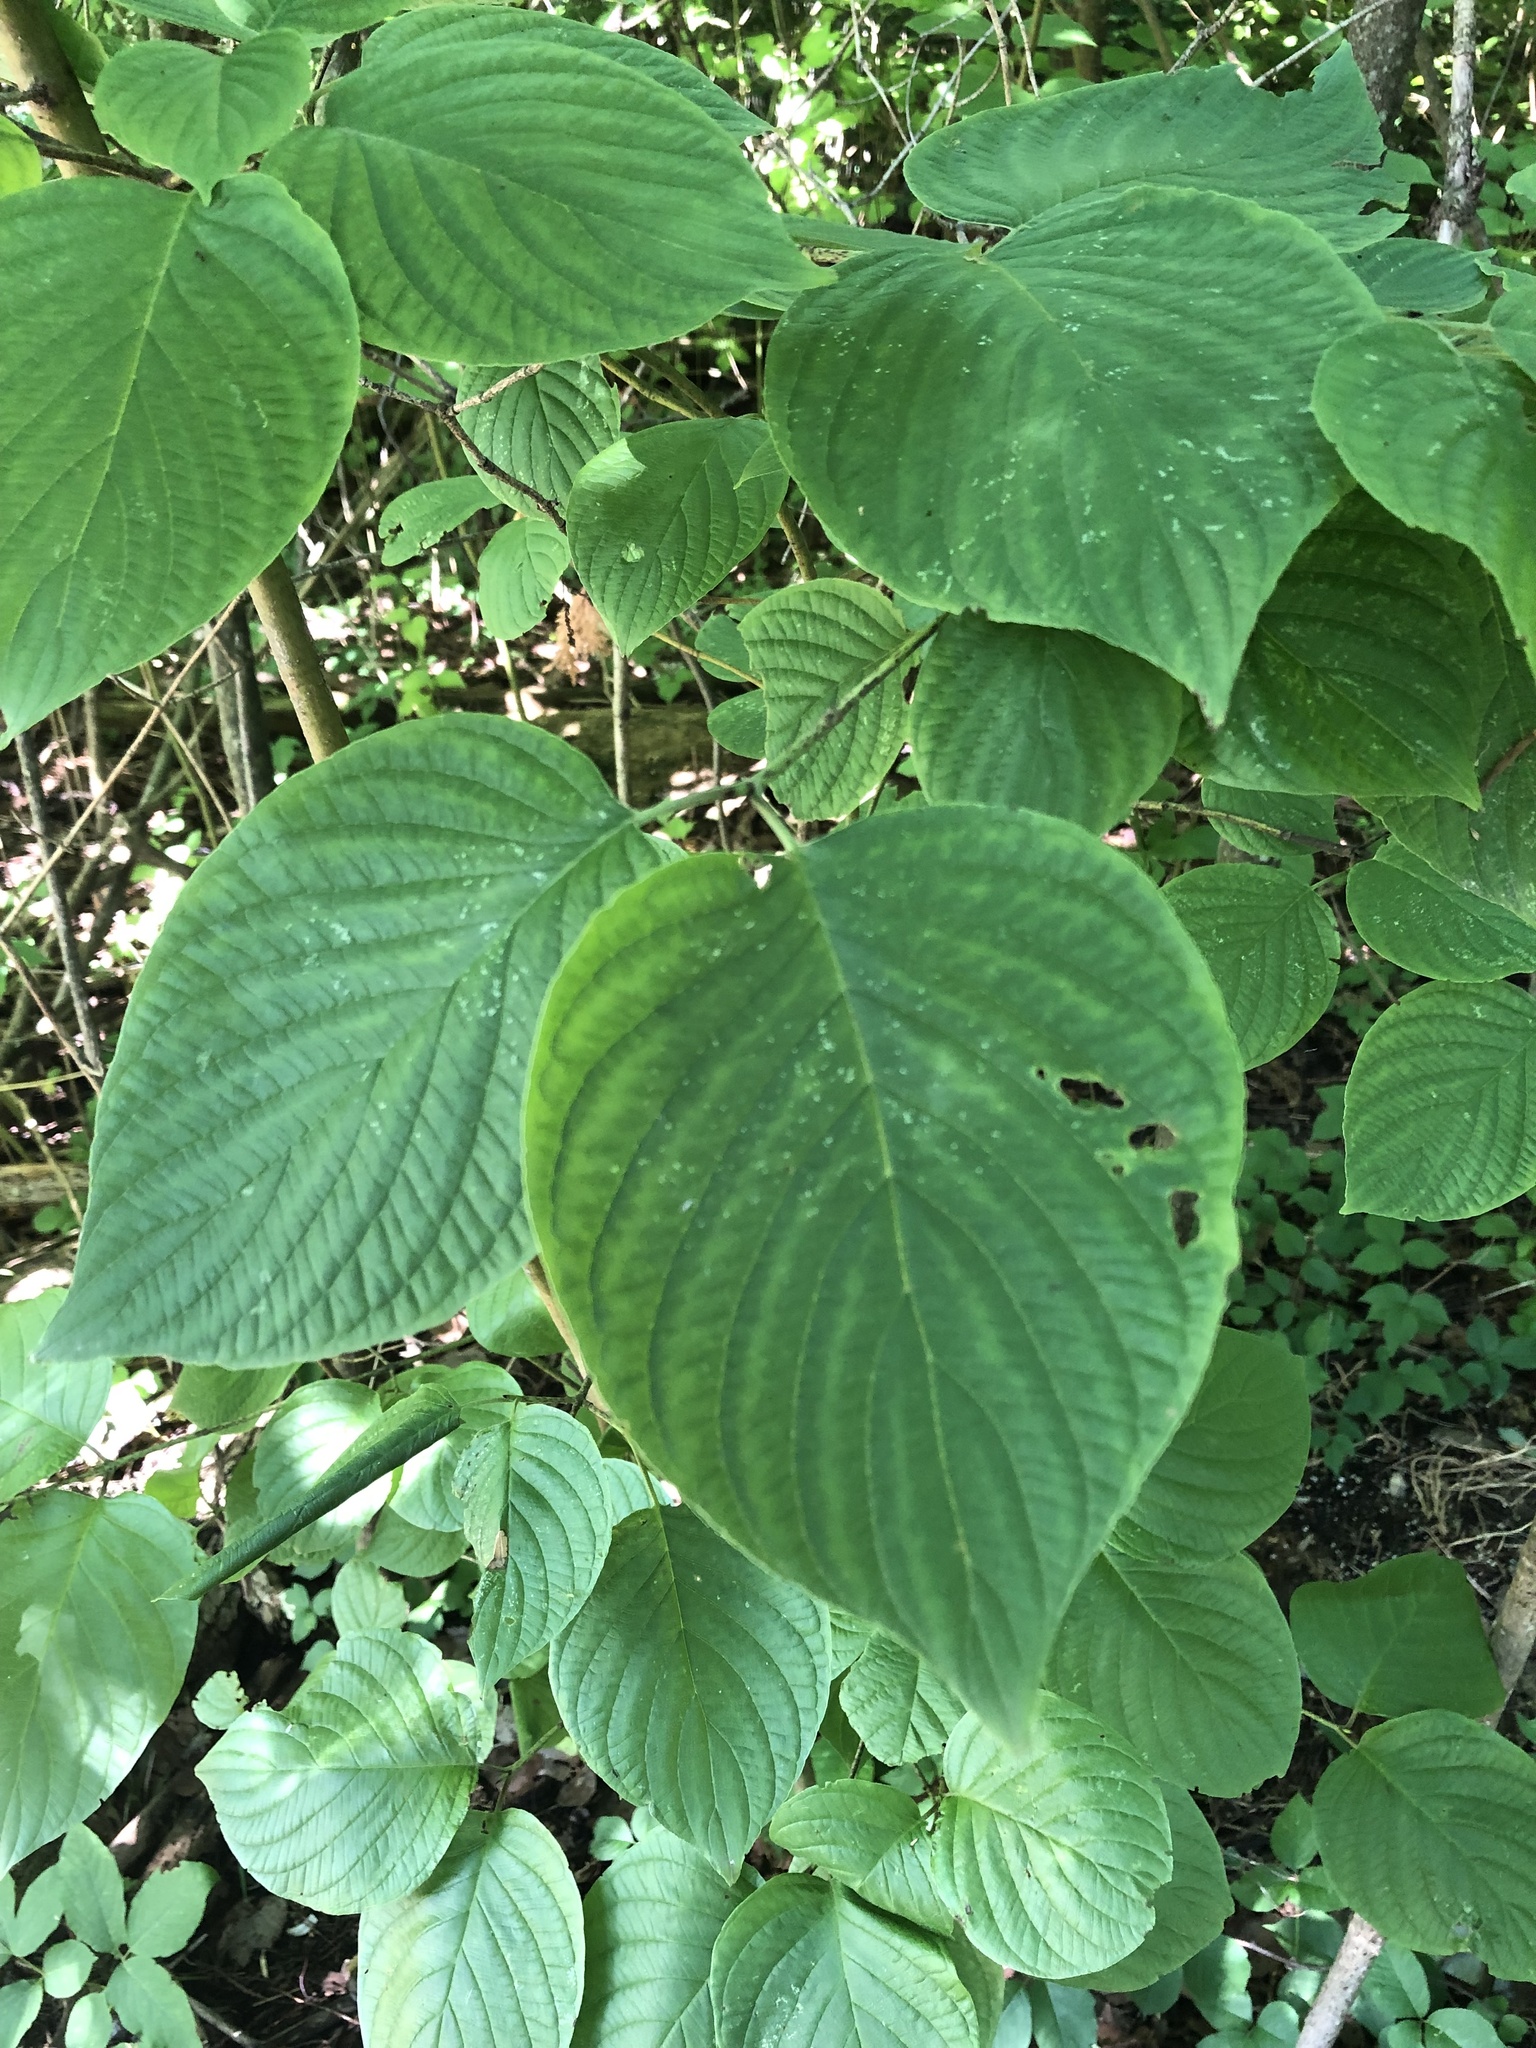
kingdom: Plantae
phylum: Tracheophyta
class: Magnoliopsida
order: Cornales
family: Cornaceae
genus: Cornus
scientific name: Cornus rugosa
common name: Round-leaf dogwood
